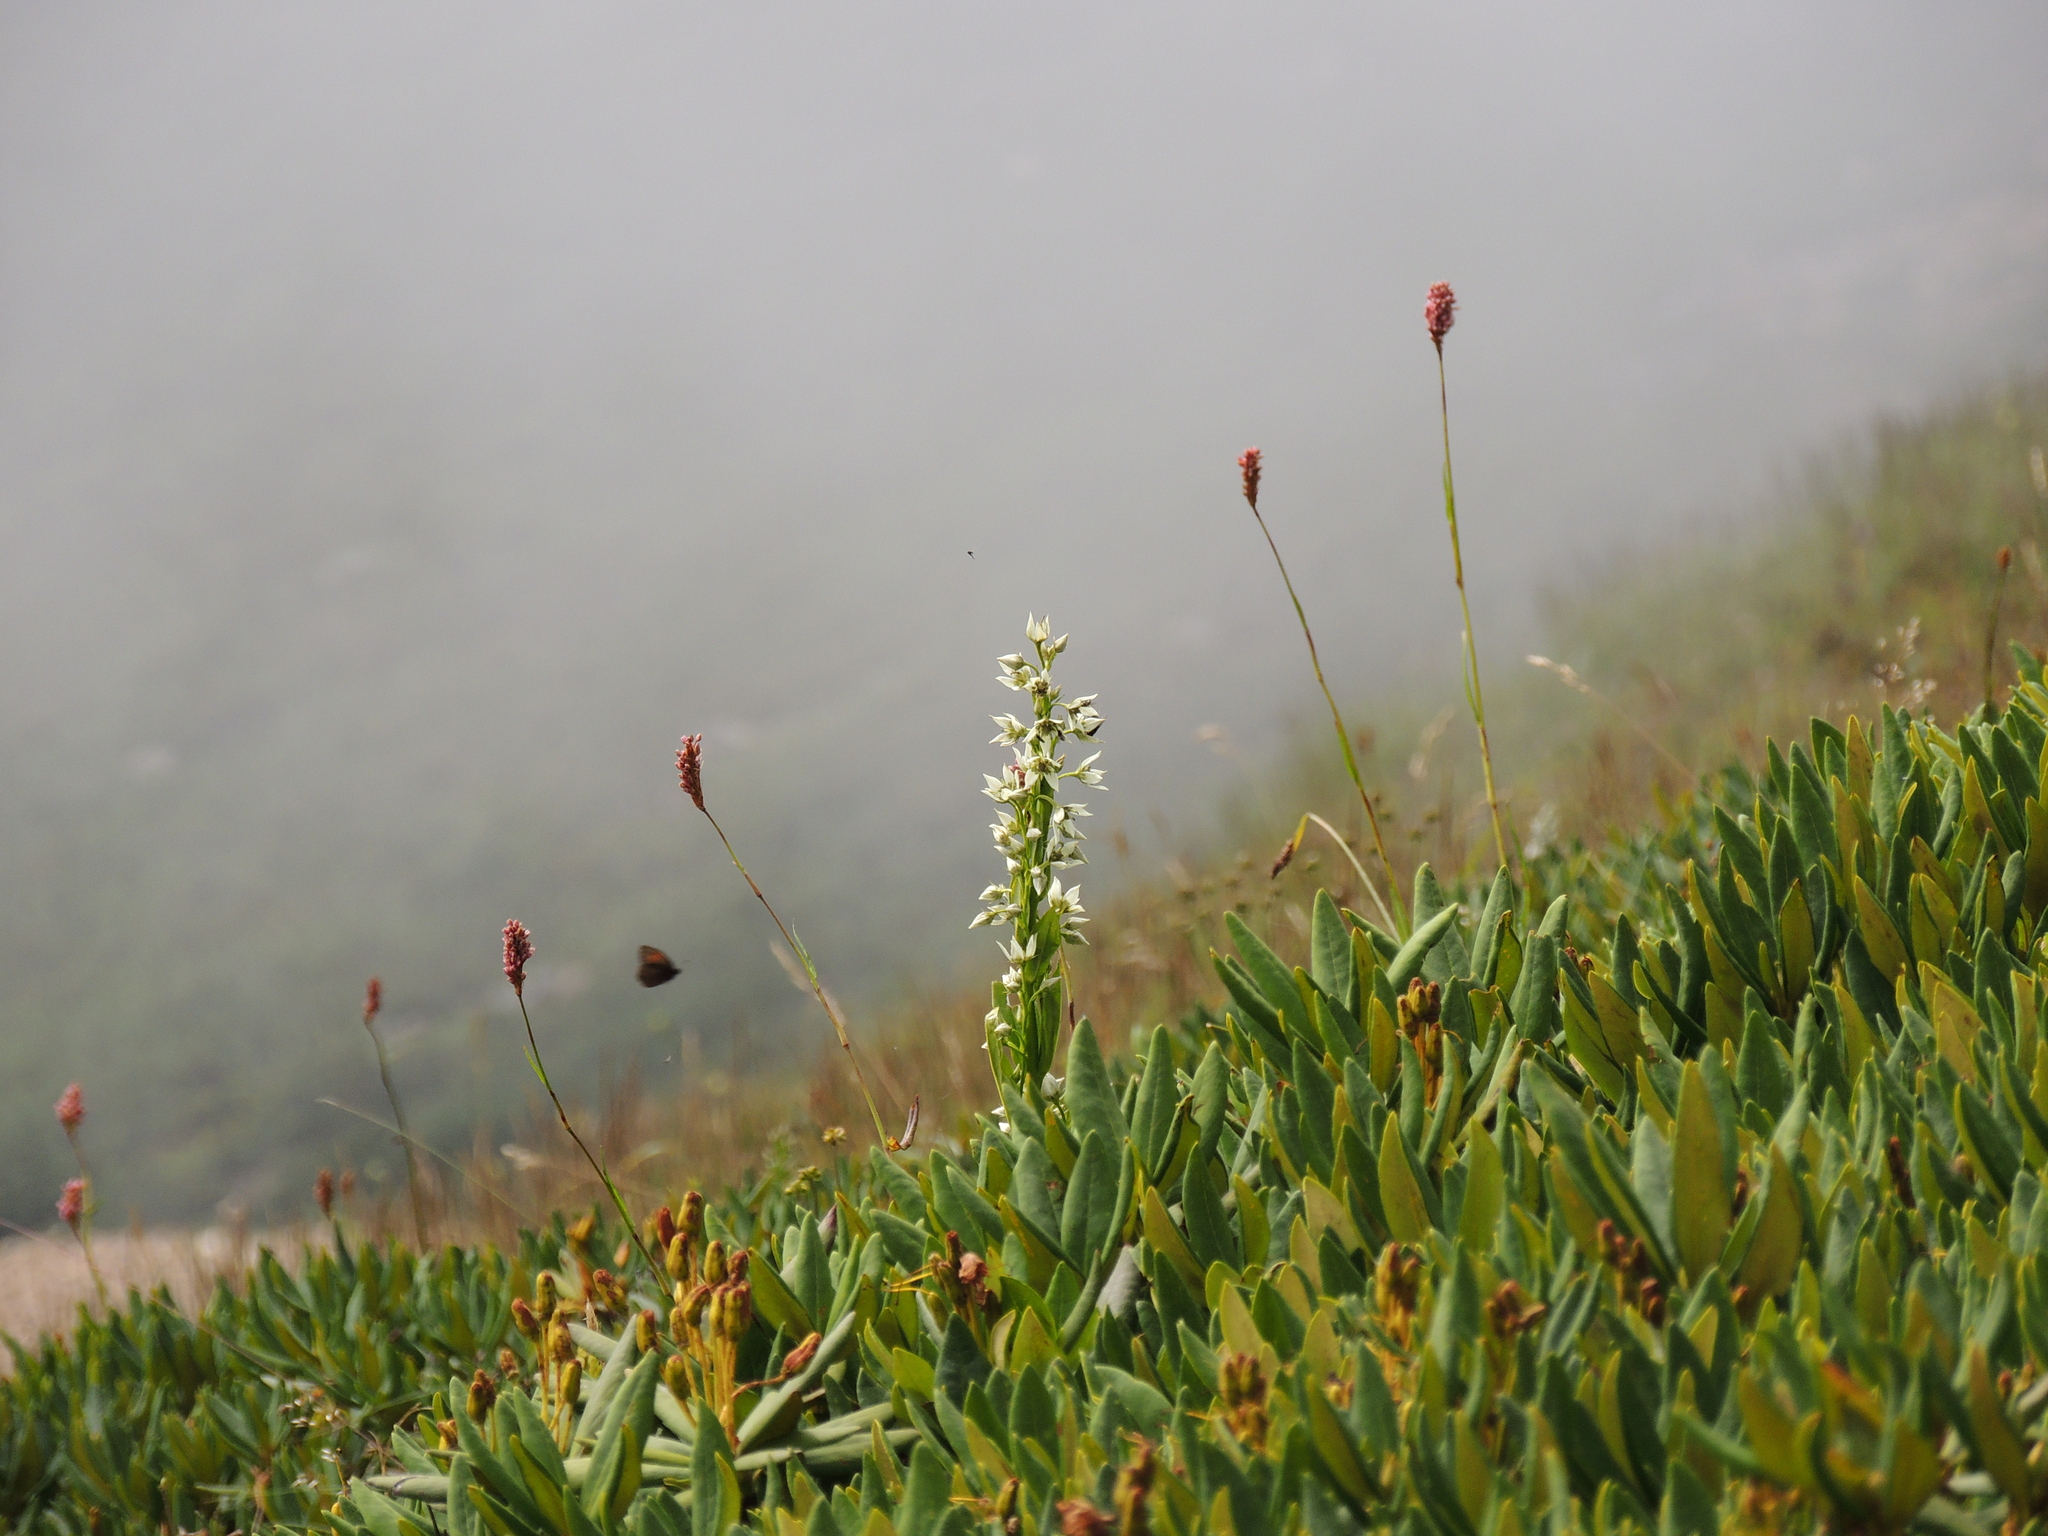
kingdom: Plantae
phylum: Tracheophyta
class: Magnoliopsida
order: Gentianales
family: Gentianaceae
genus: Swertia
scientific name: Swertia iberica
